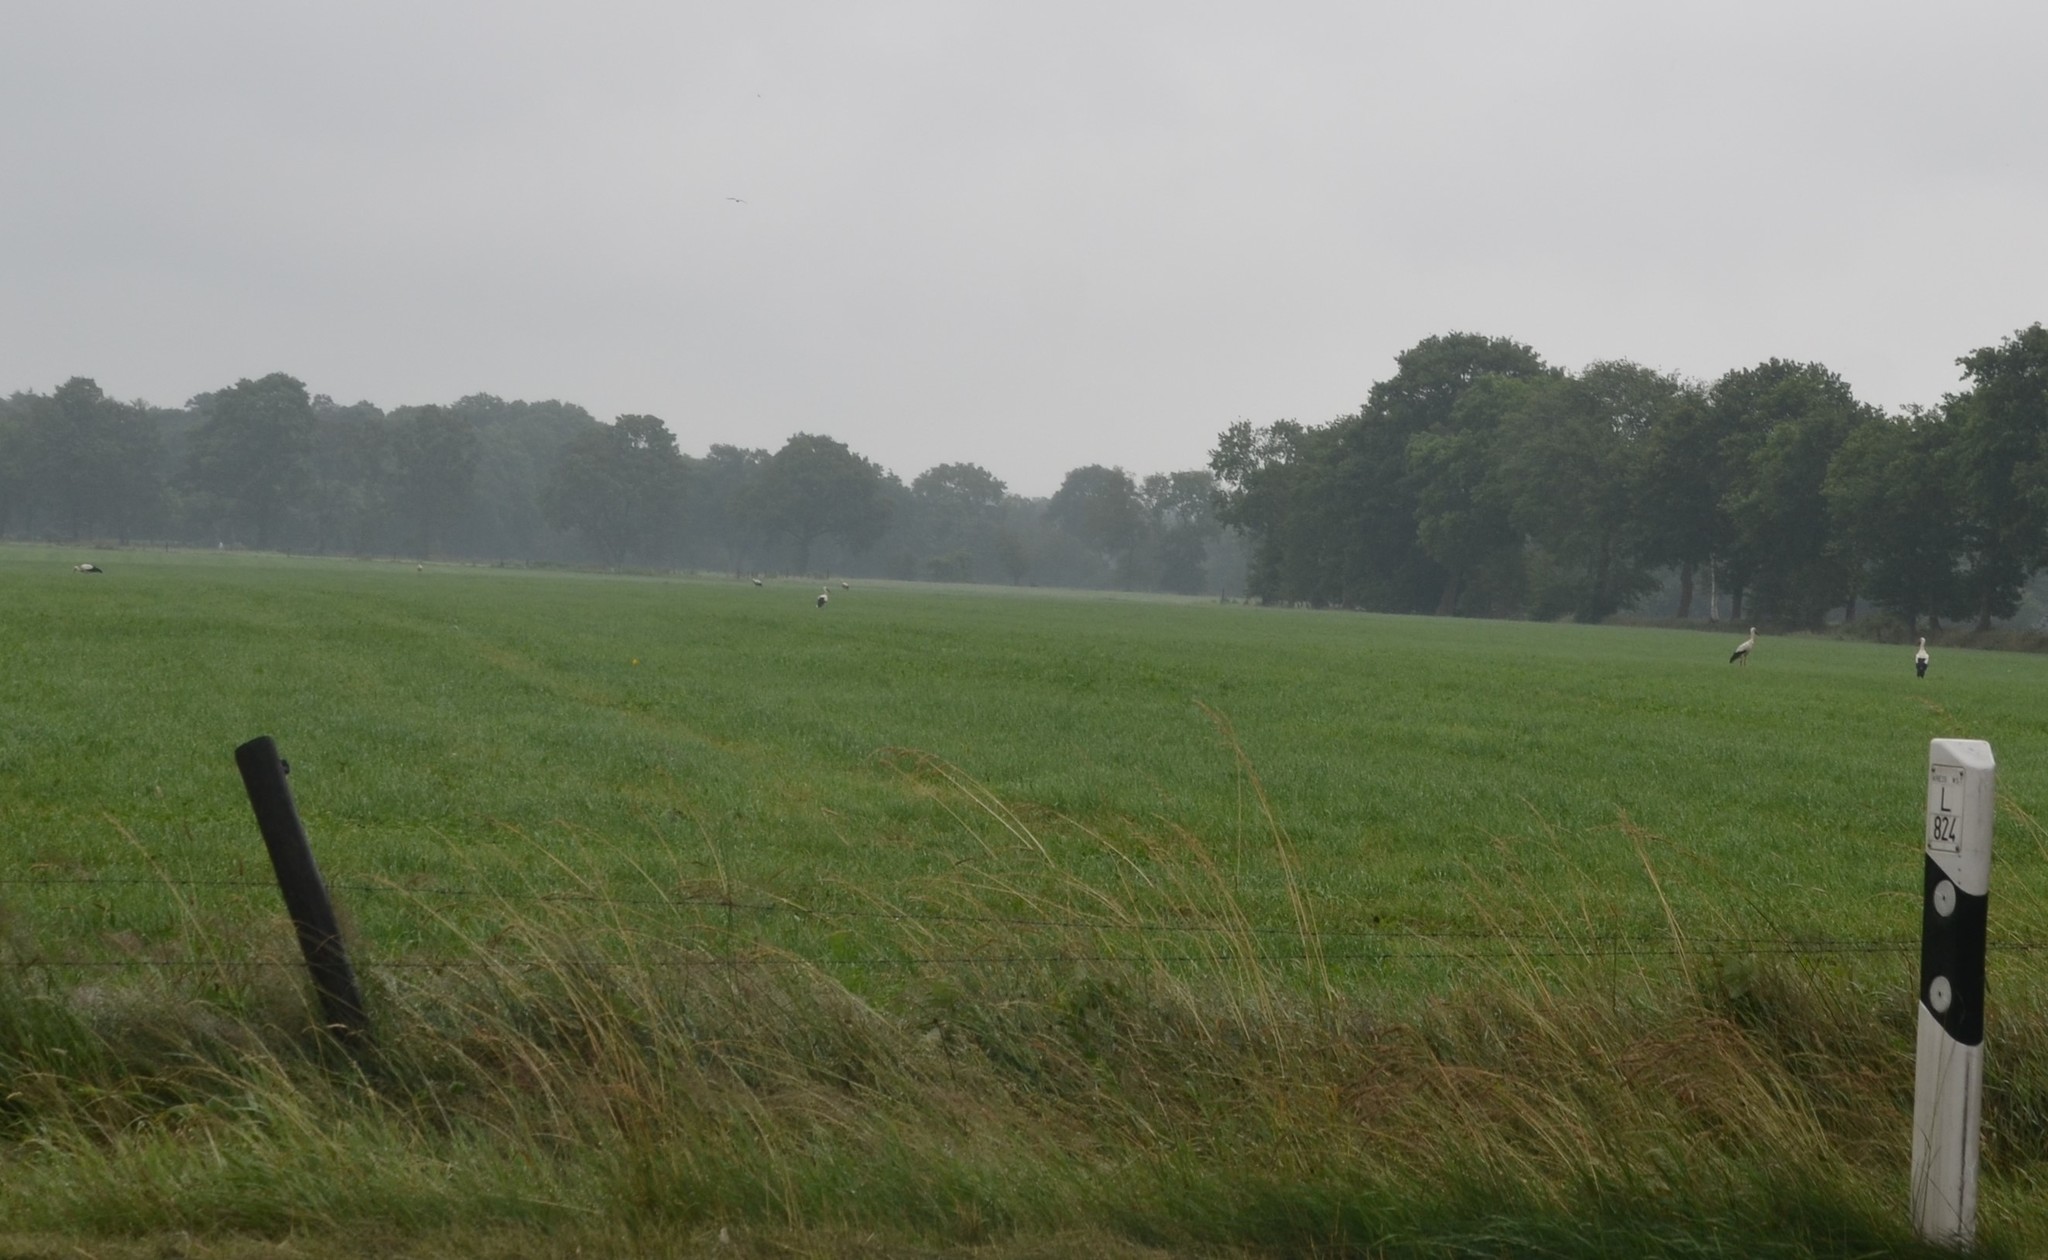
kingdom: Animalia
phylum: Chordata
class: Aves
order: Ciconiiformes
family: Ciconiidae
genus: Ciconia
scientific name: Ciconia ciconia
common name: White stork
